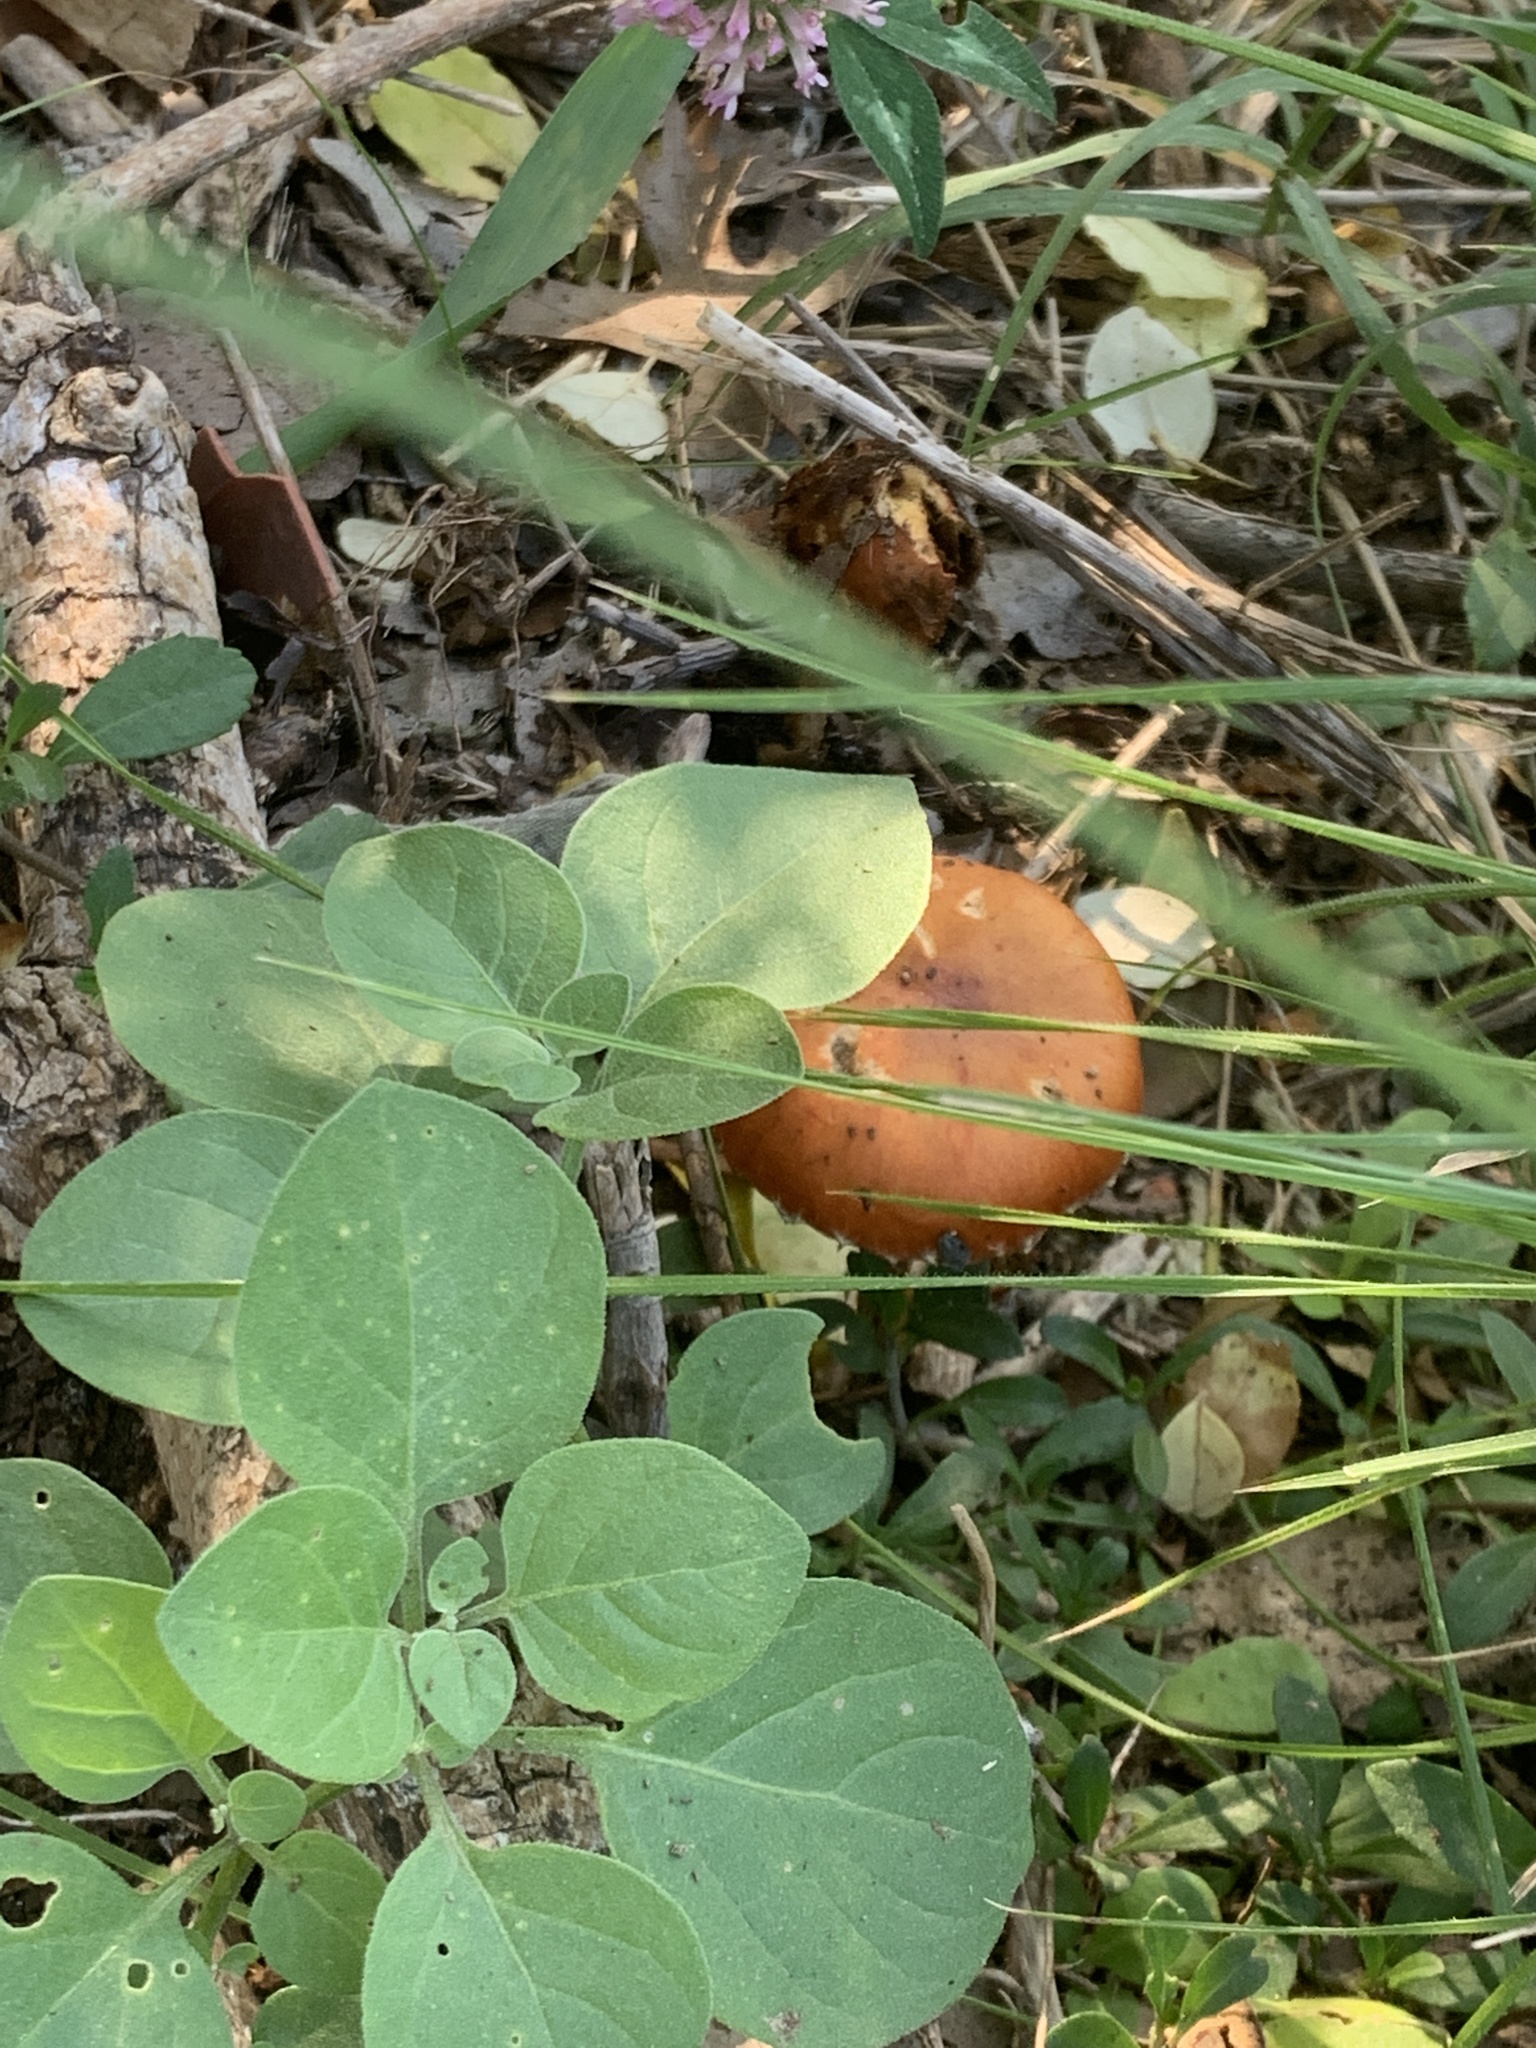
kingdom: Fungi
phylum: Basidiomycota
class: Agaricomycetes
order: Agaricales
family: Strophariaceae
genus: Leratiomyces
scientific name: Leratiomyces ceres
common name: Redlead roundhead
